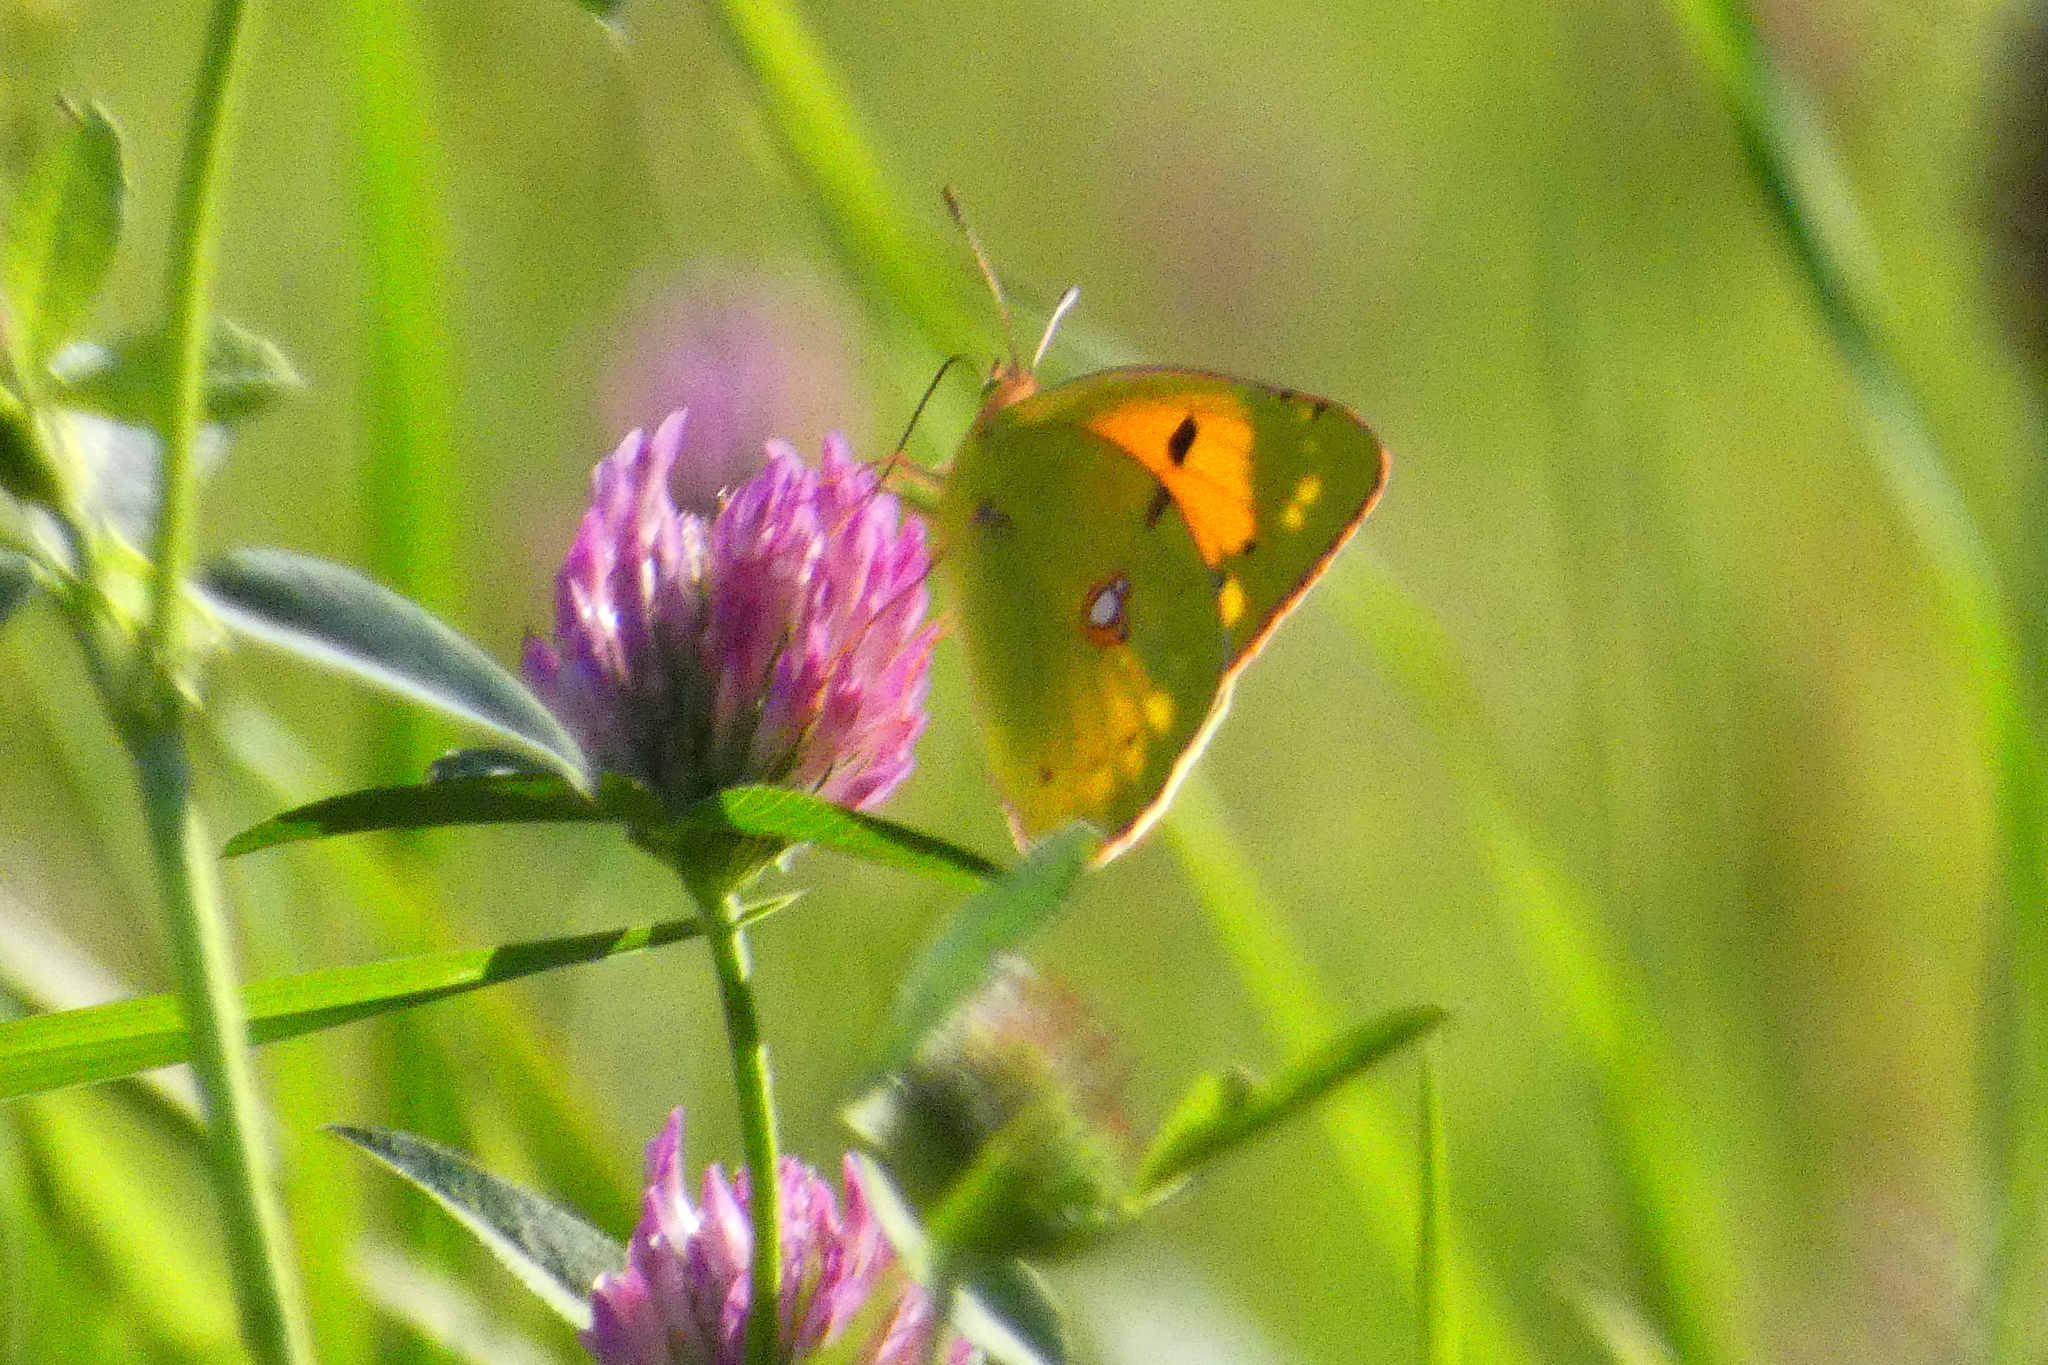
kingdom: Animalia
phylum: Arthropoda
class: Insecta
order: Lepidoptera
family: Pieridae
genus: Colias
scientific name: Colias croceus
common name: Clouded yellow
